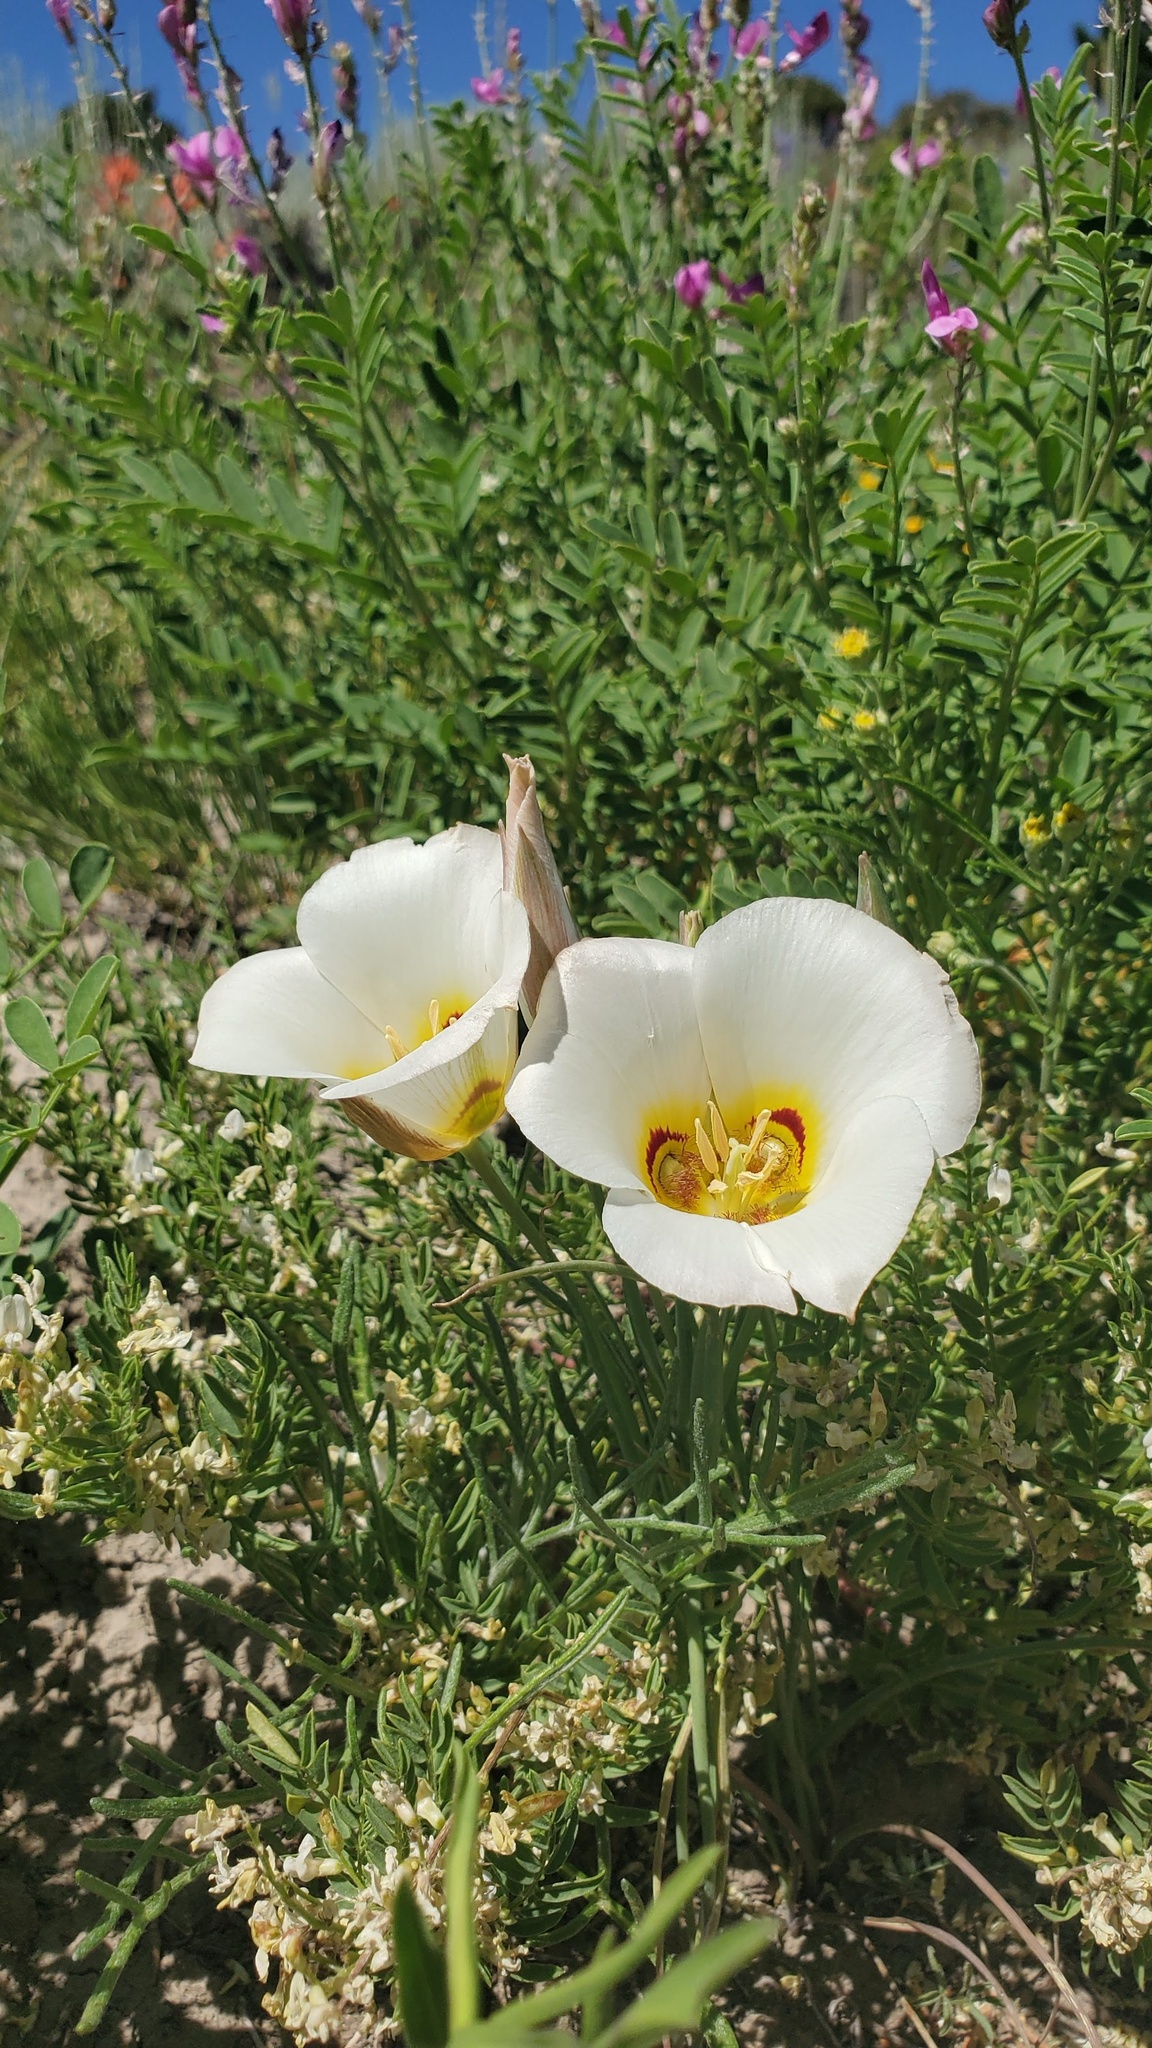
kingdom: Plantae
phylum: Tracheophyta
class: Liliopsida
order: Liliales
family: Liliaceae
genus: Calochortus
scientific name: Calochortus nuttallii
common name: Sego-lily
